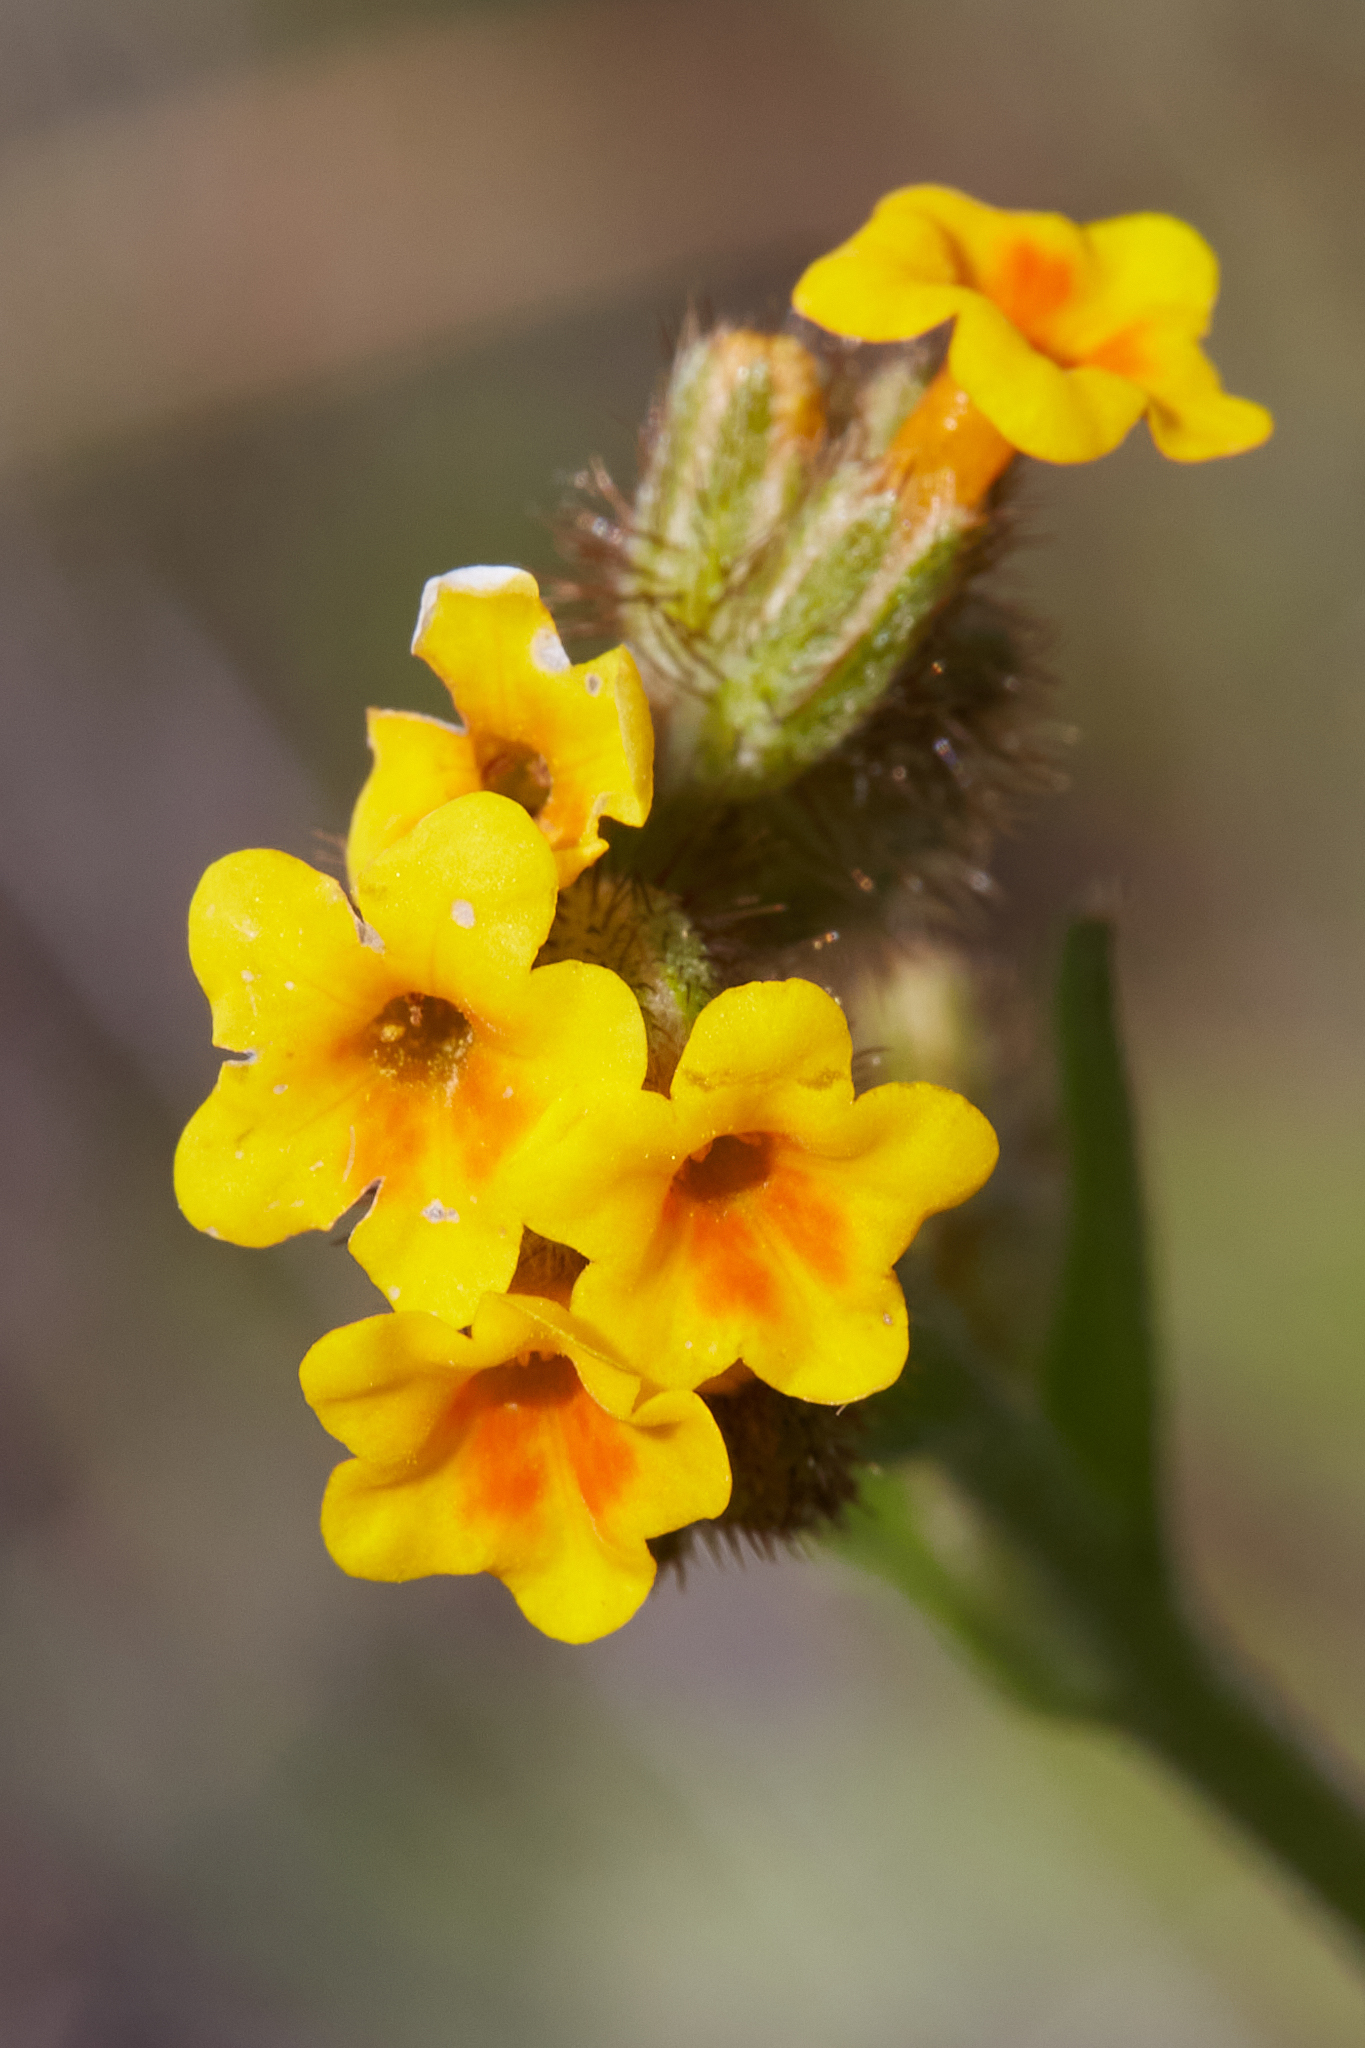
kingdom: Plantae
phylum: Tracheophyta
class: Magnoliopsida
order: Boraginales
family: Boraginaceae
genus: Amsinckia
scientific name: Amsinckia lunaris
